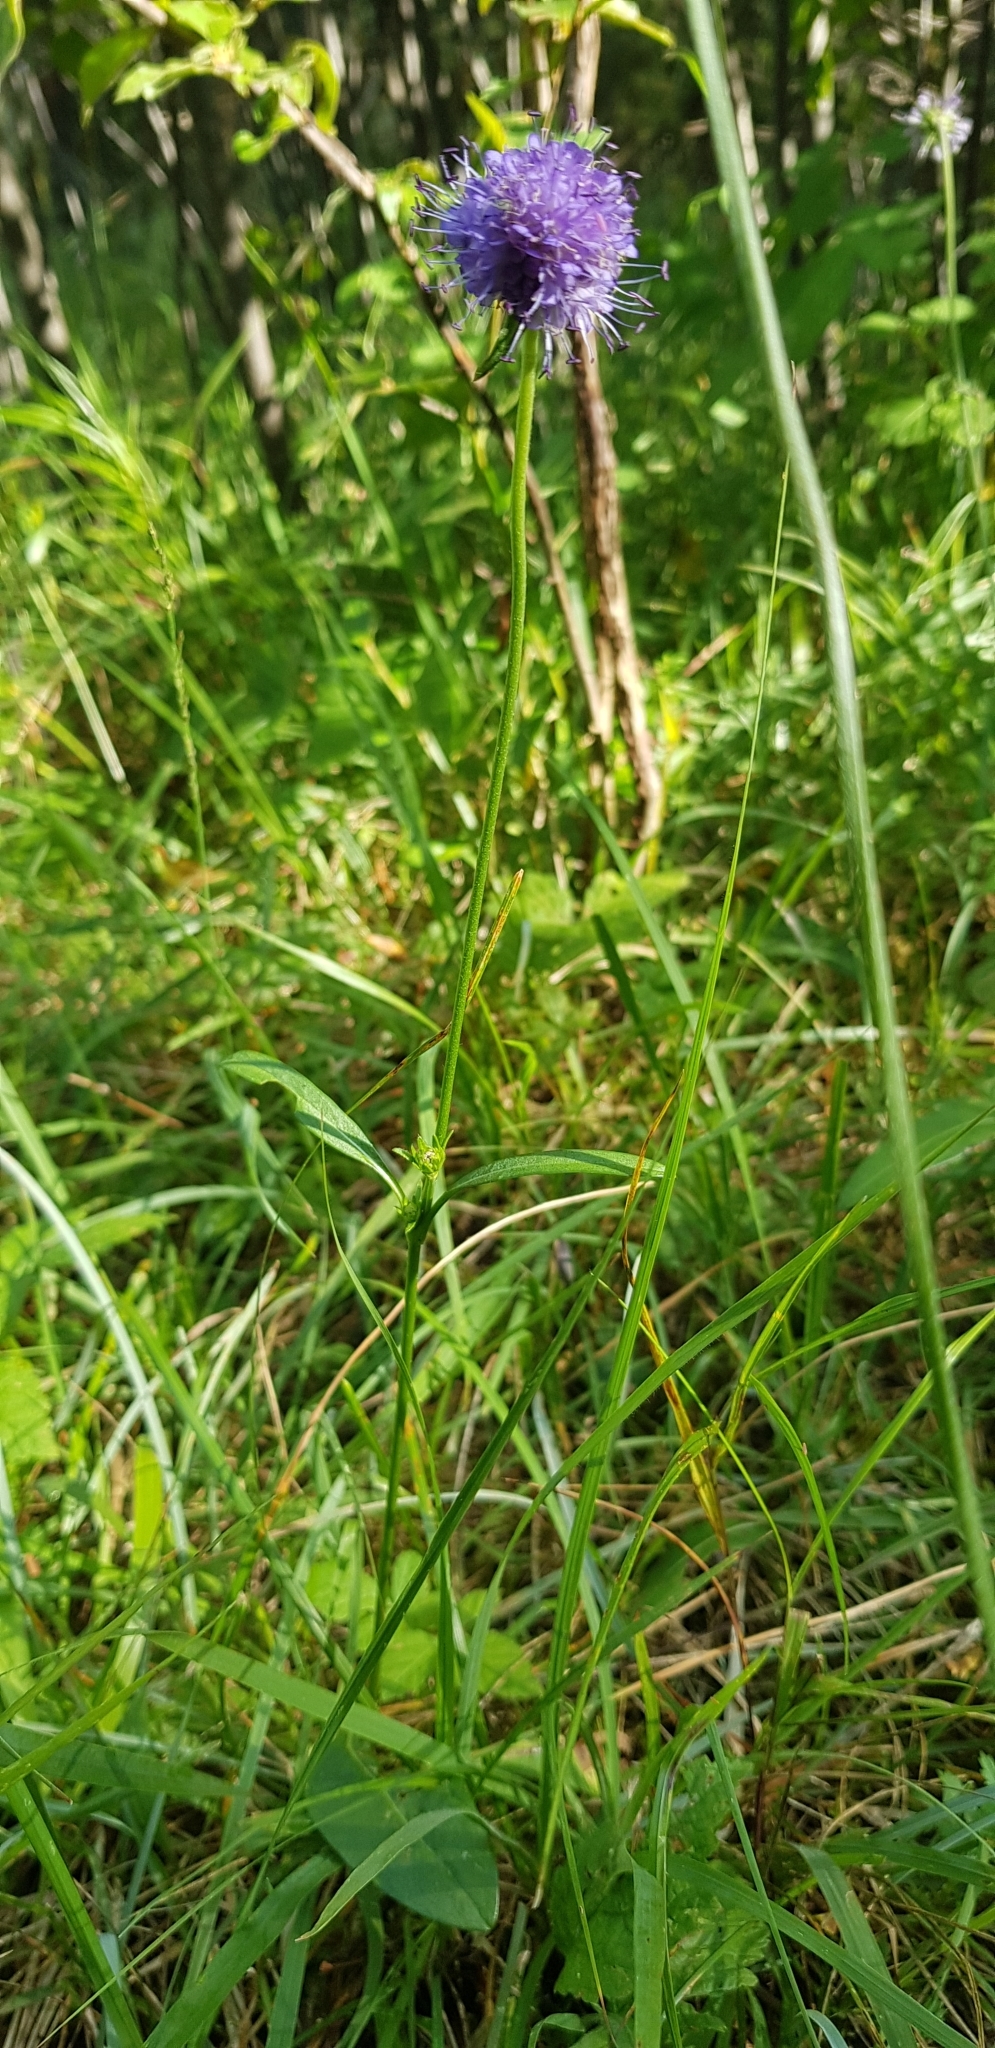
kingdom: Plantae
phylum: Tracheophyta
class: Magnoliopsida
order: Dipsacales
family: Caprifoliaceae
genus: Succisa
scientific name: Succisa pratensis
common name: Devil's-bit
